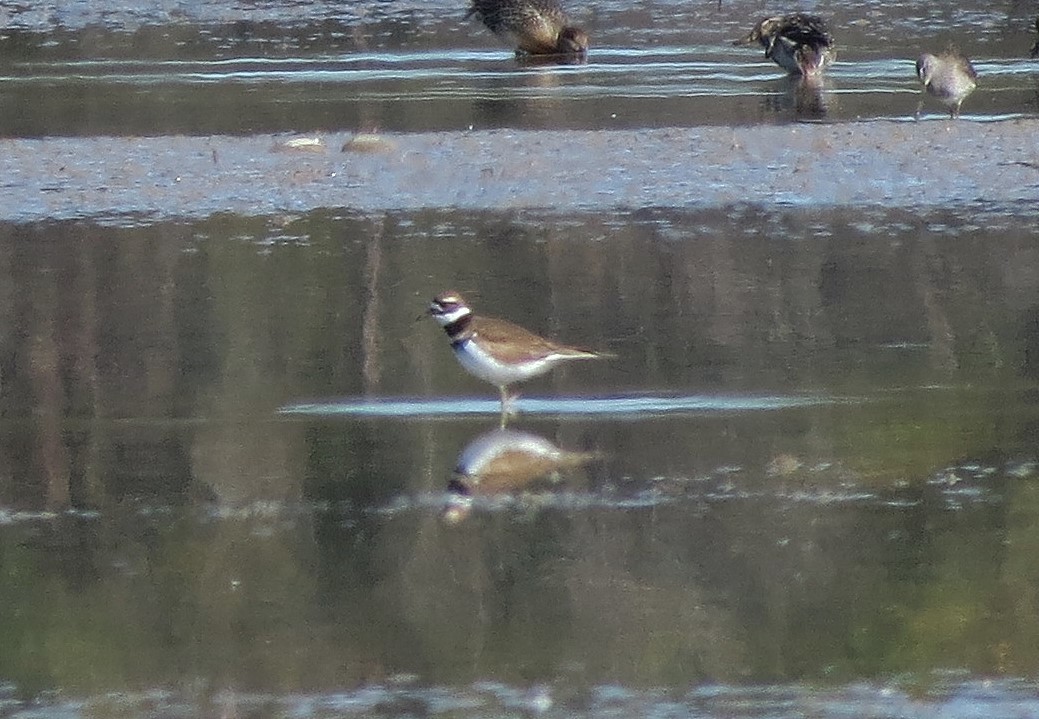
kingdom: Animalia
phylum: Chordata
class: Aves
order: Charadriiformes
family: Charadriidae
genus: Charadrius
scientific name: Charadrius vociferus
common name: Killdeer
